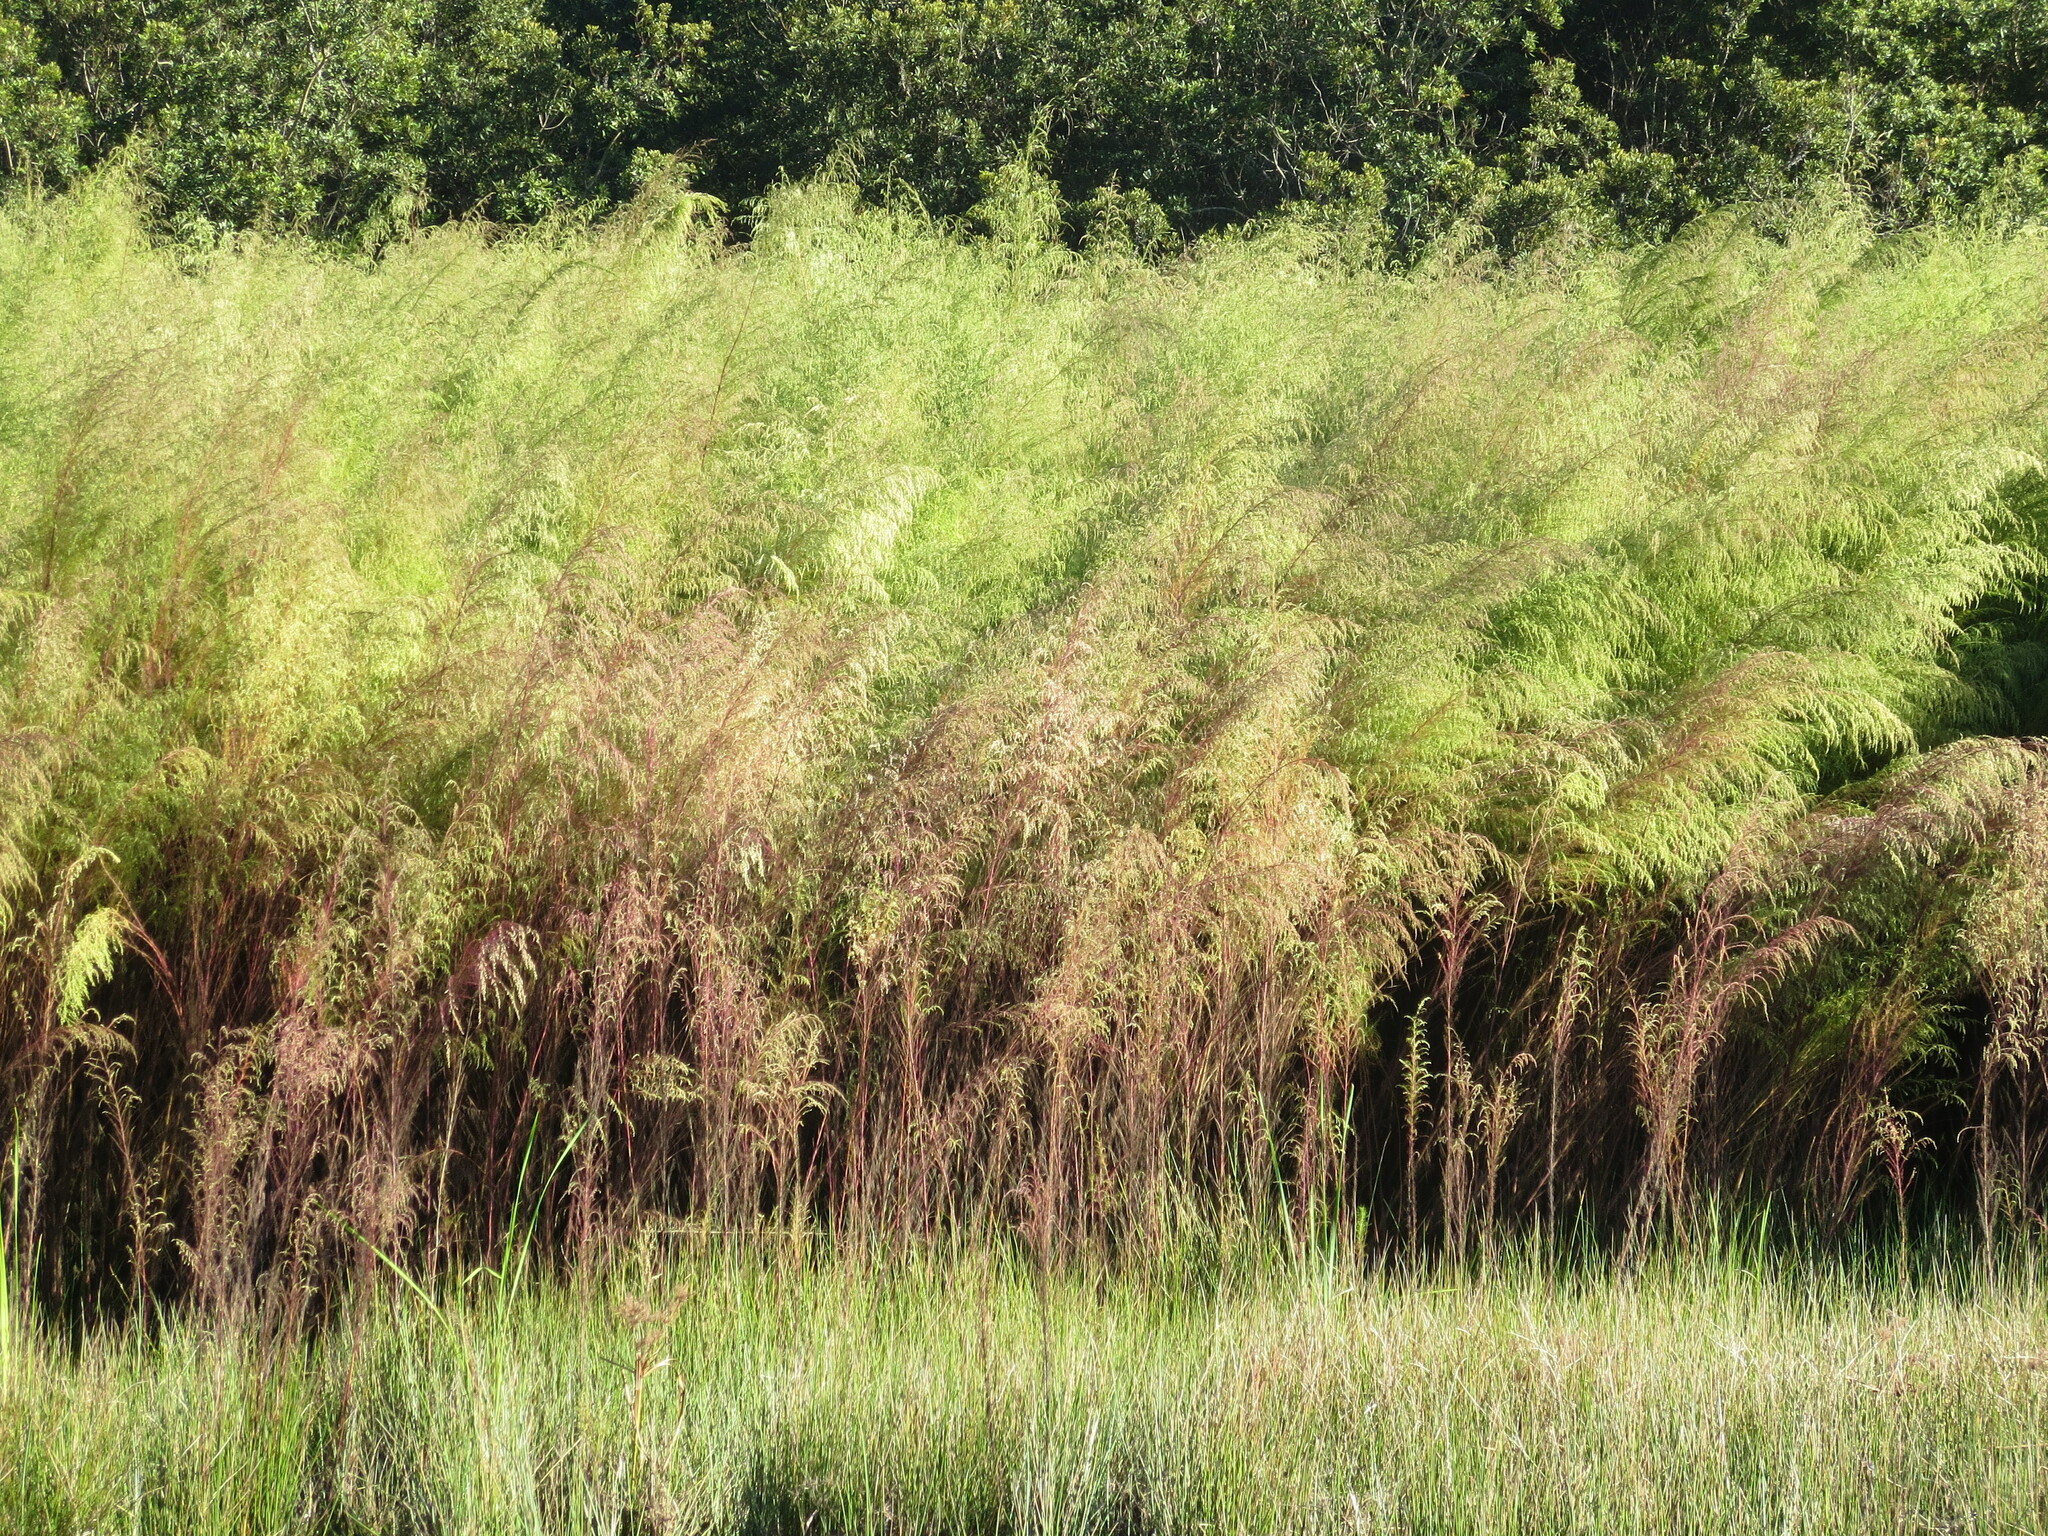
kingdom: Plantae
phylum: Tracheophyta
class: Magnoliopsida
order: Asterales
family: Asteraceae
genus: Eupatorium
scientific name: Eupatorium capillifolium
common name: Dog-fennel
